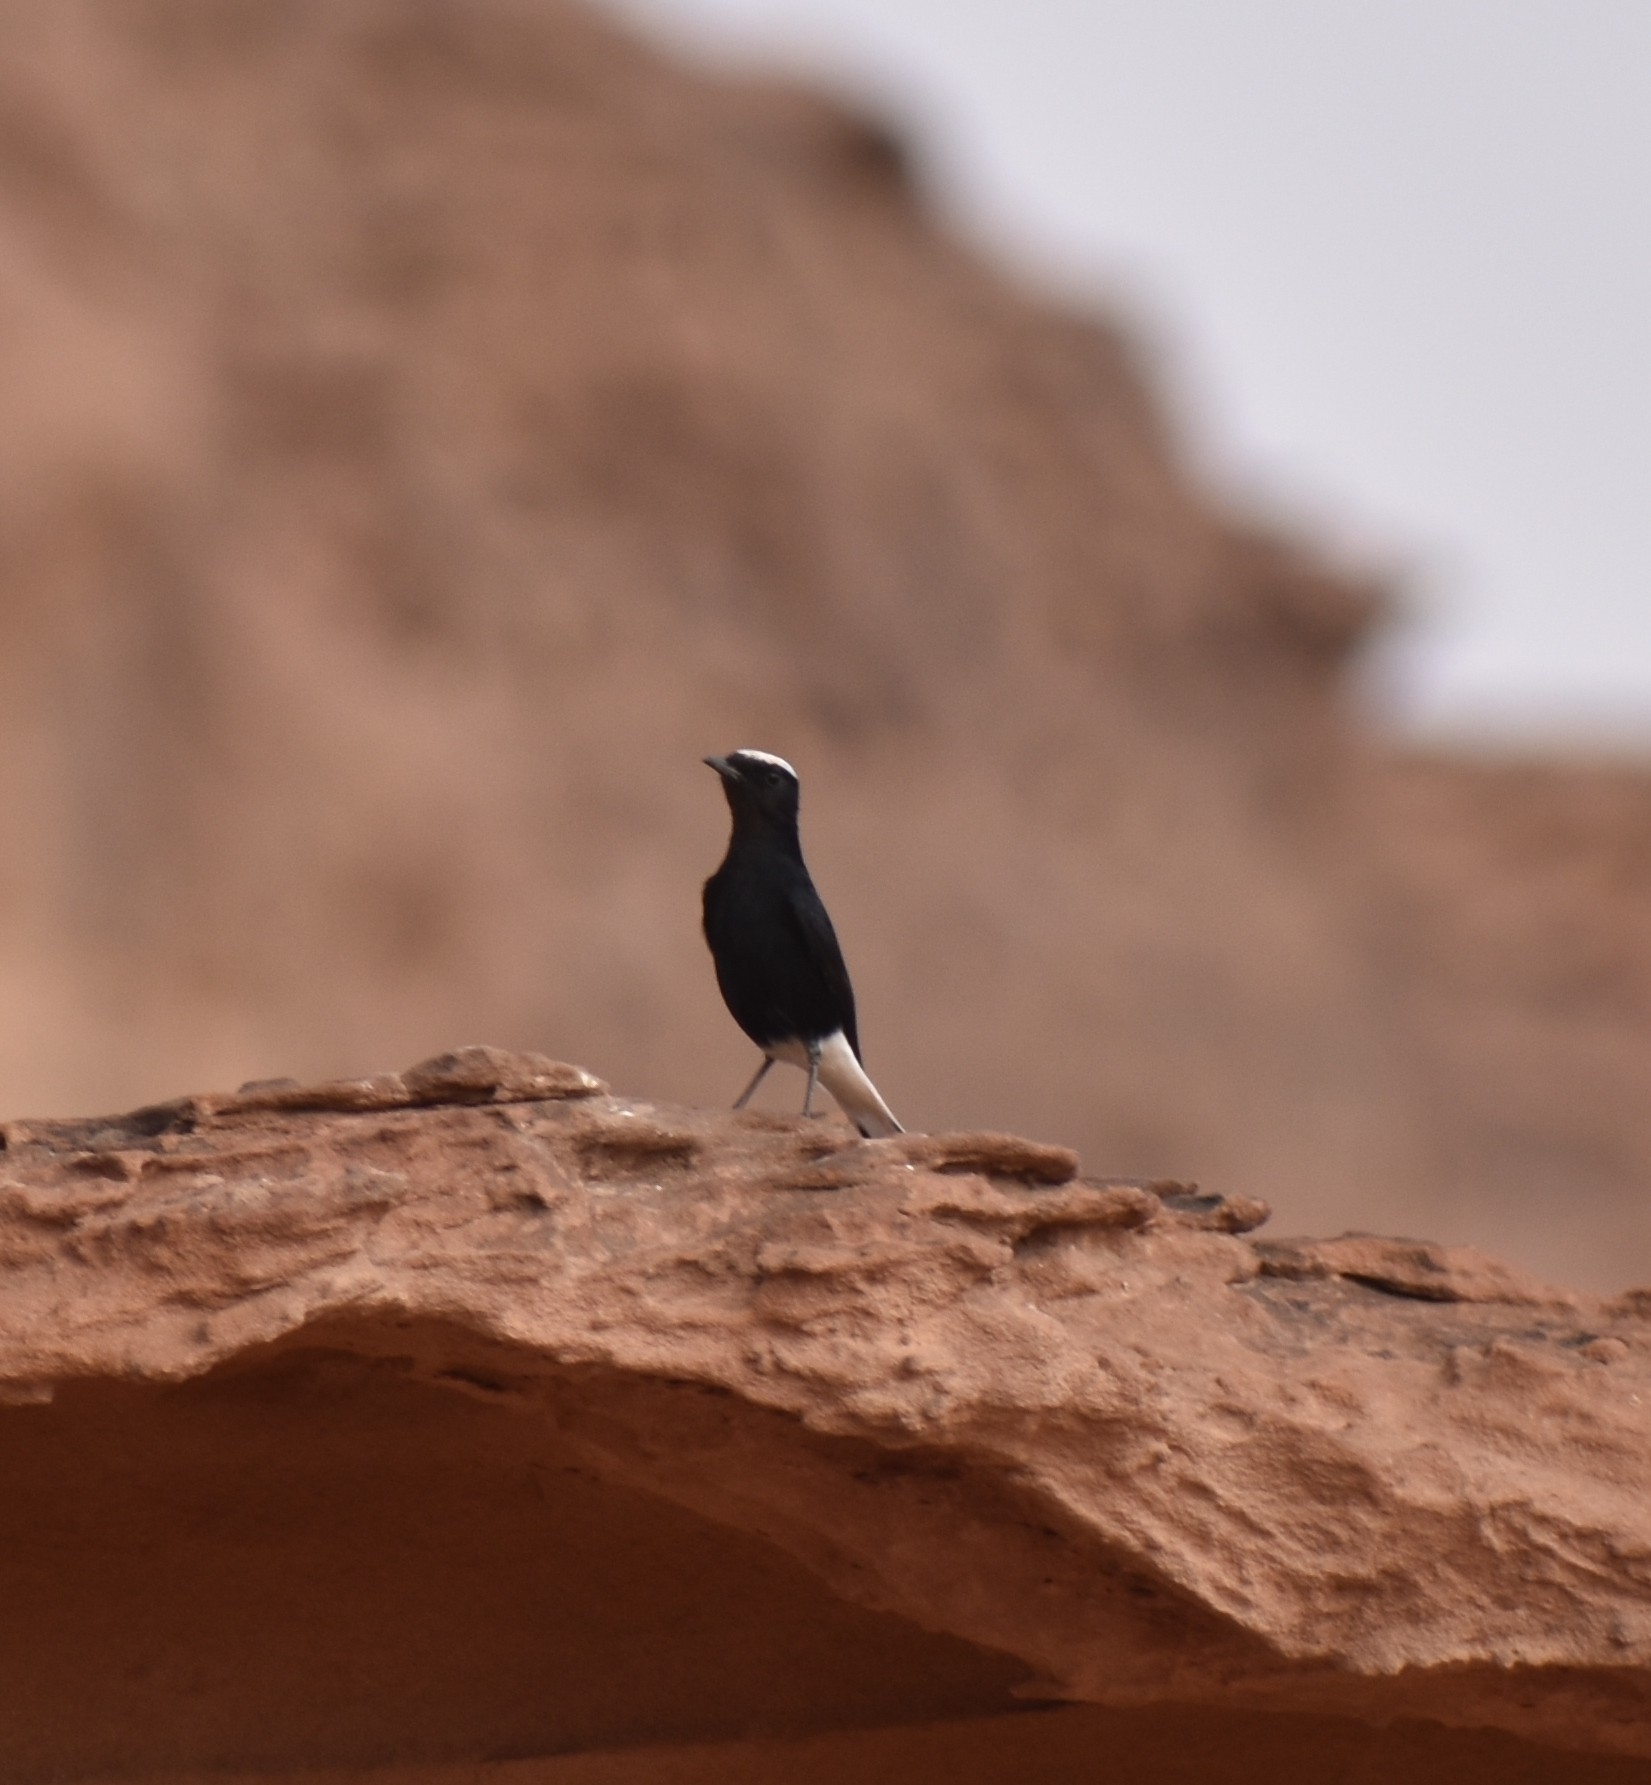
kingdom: Animalia
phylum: Chordata
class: Aves
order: Passeriformes
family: Muscicapidae
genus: Oenanthe
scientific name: Oenanthe leucopyga
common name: White-crowned wheatear
